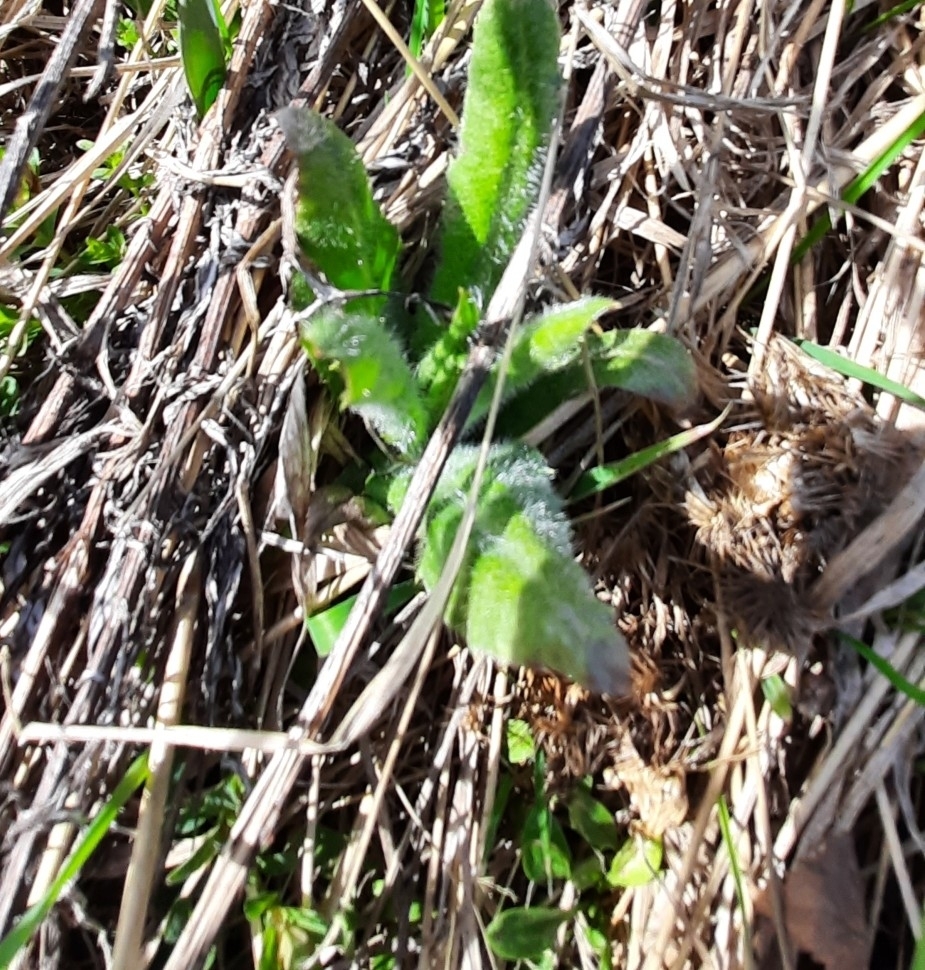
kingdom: Plantae
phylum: Tracheophyta
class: Magnoliopsida
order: Asterales
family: Asteraceae
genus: Cirsium
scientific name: Cirsium arvense
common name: Creeping thistle
